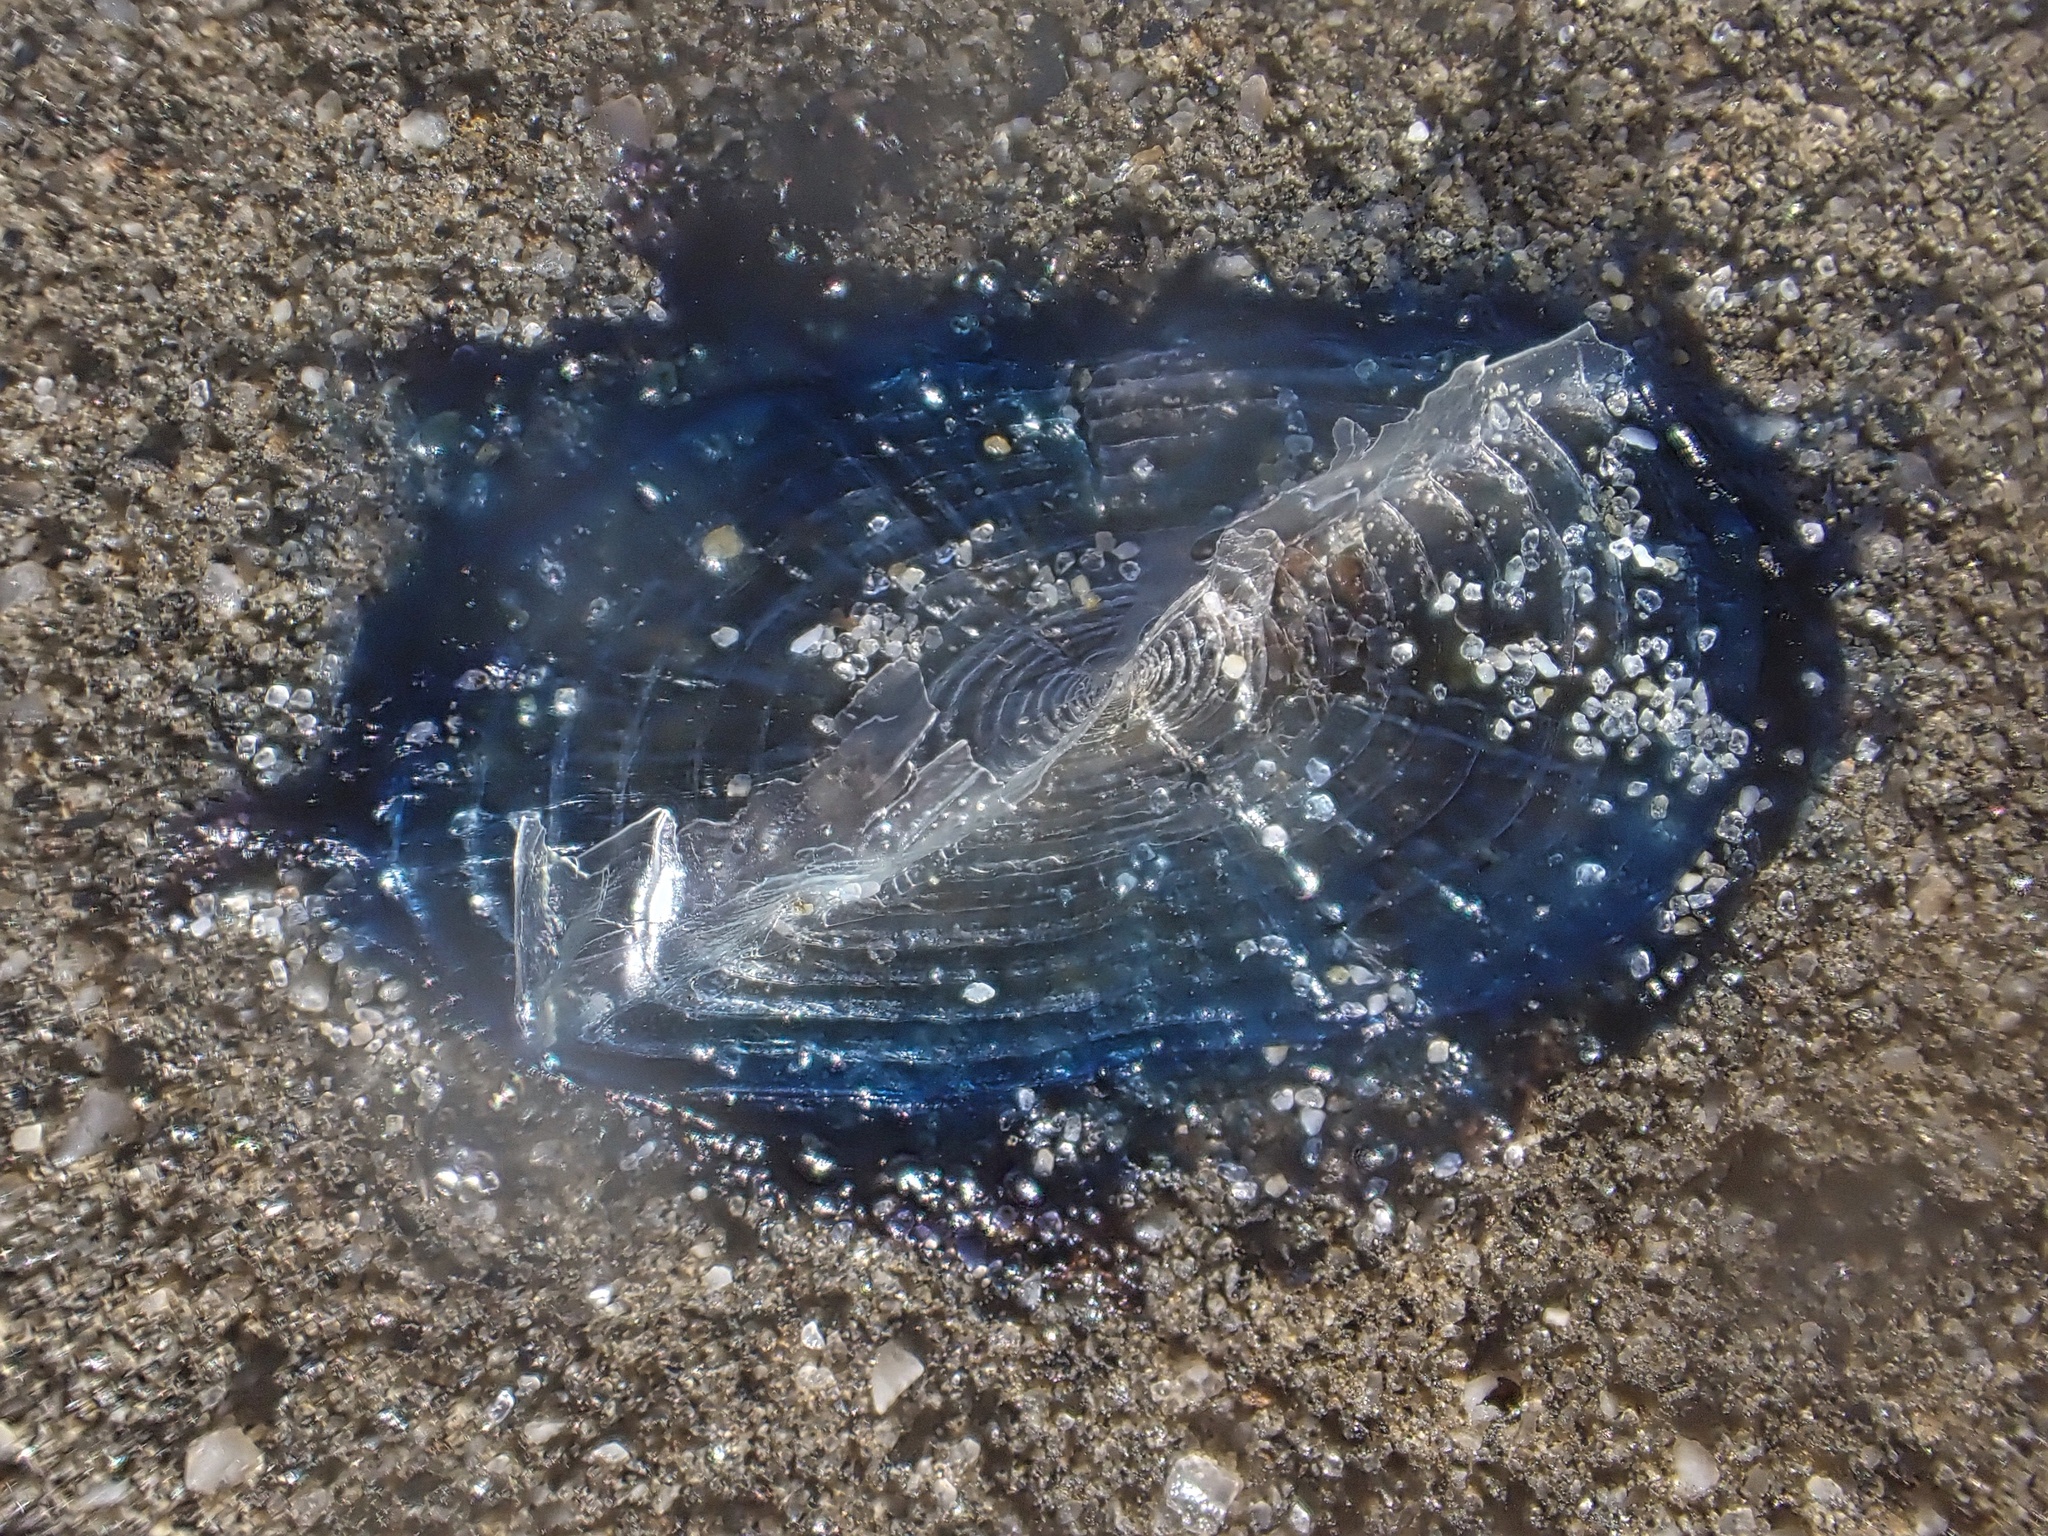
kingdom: Animalia
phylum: Cnidaria
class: Hydrozoa
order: Anthoathecata
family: Porpitidae
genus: Velella
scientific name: Velella velella
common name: By-the-wind-sailor
